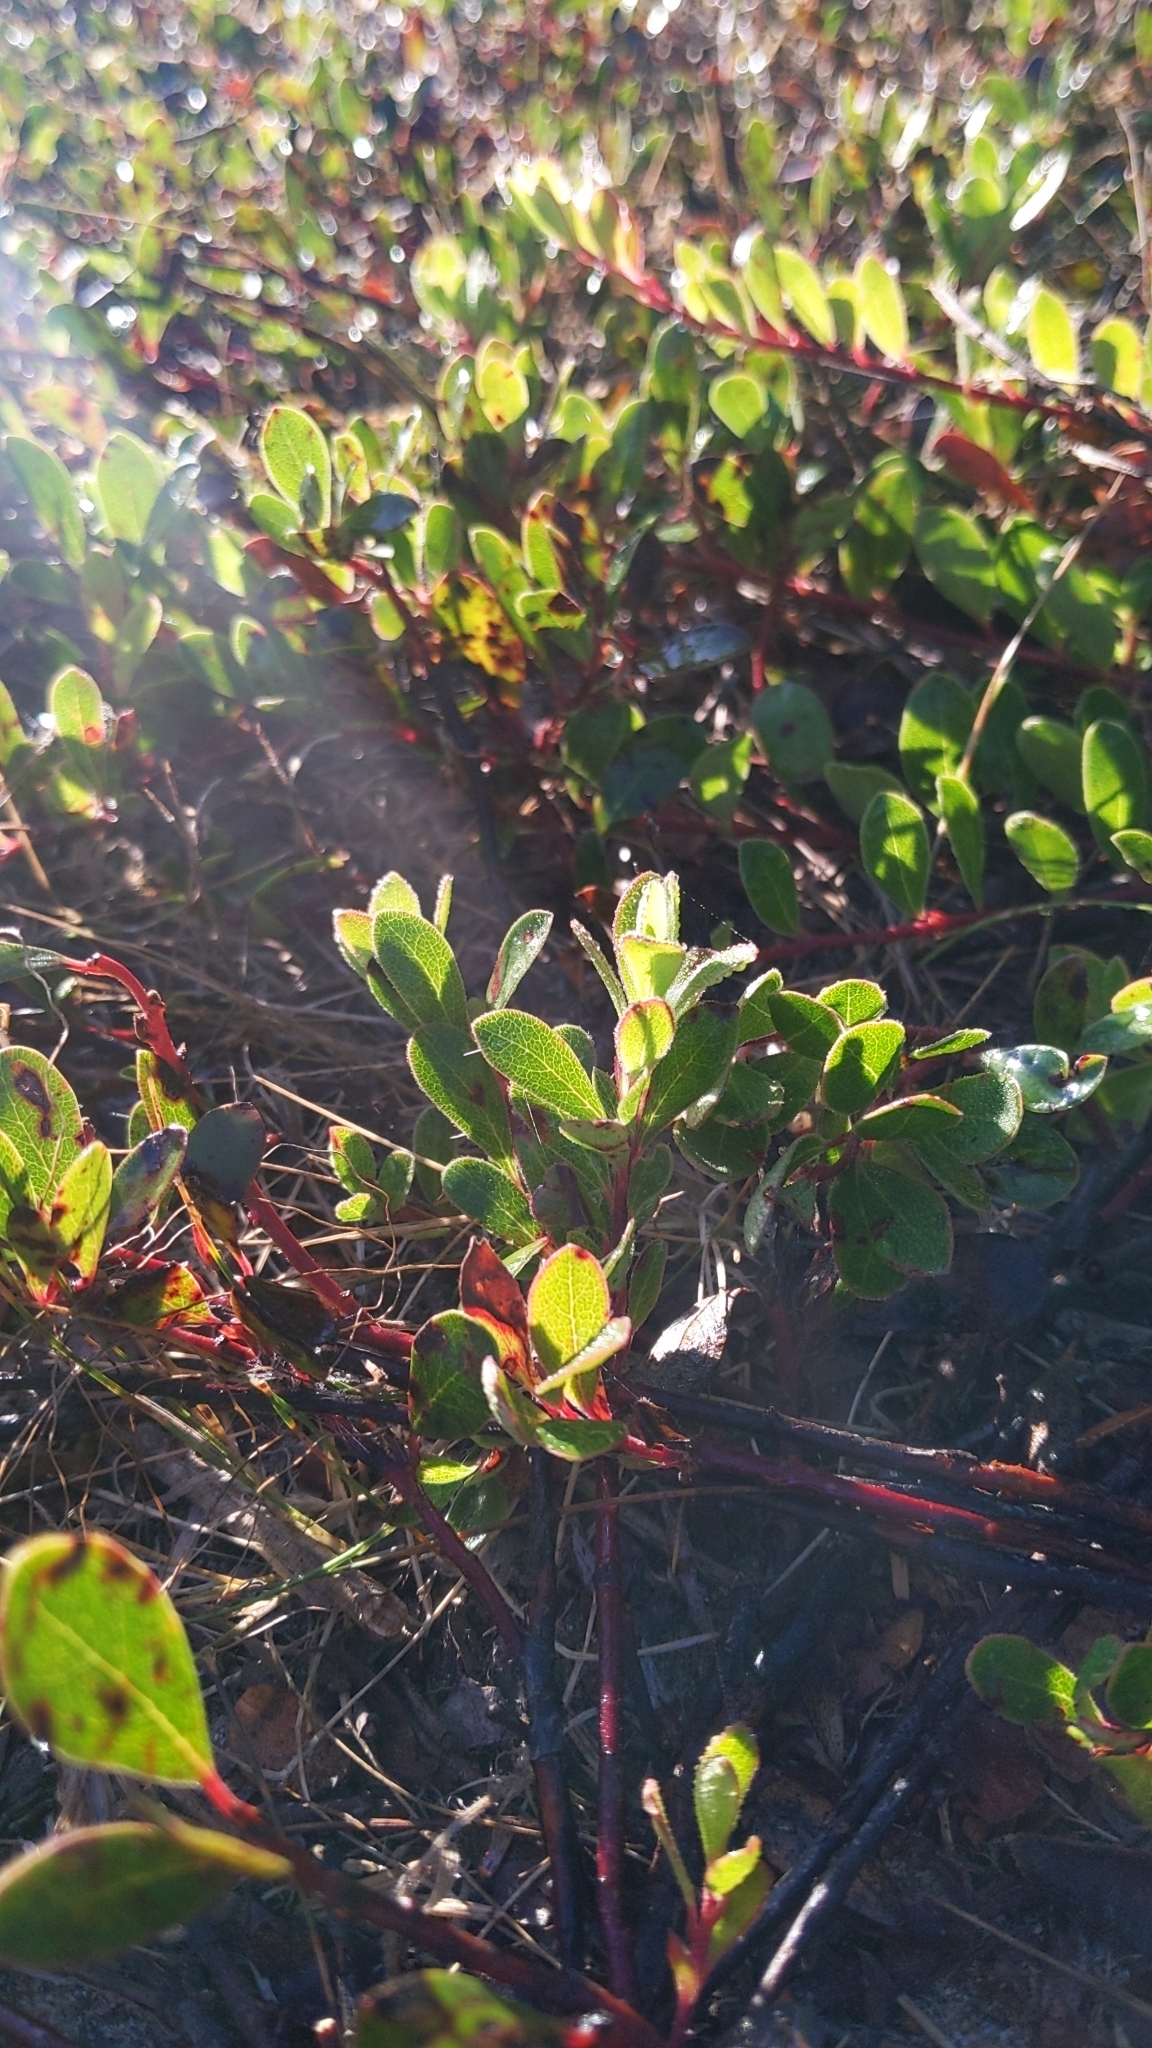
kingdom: Plantae
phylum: Tracheophyta
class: Magnoliopsida
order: Ericales
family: Ericaceae
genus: Arctostaphylos
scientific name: Arctostaphylos uva-ursi
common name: Bearberry
